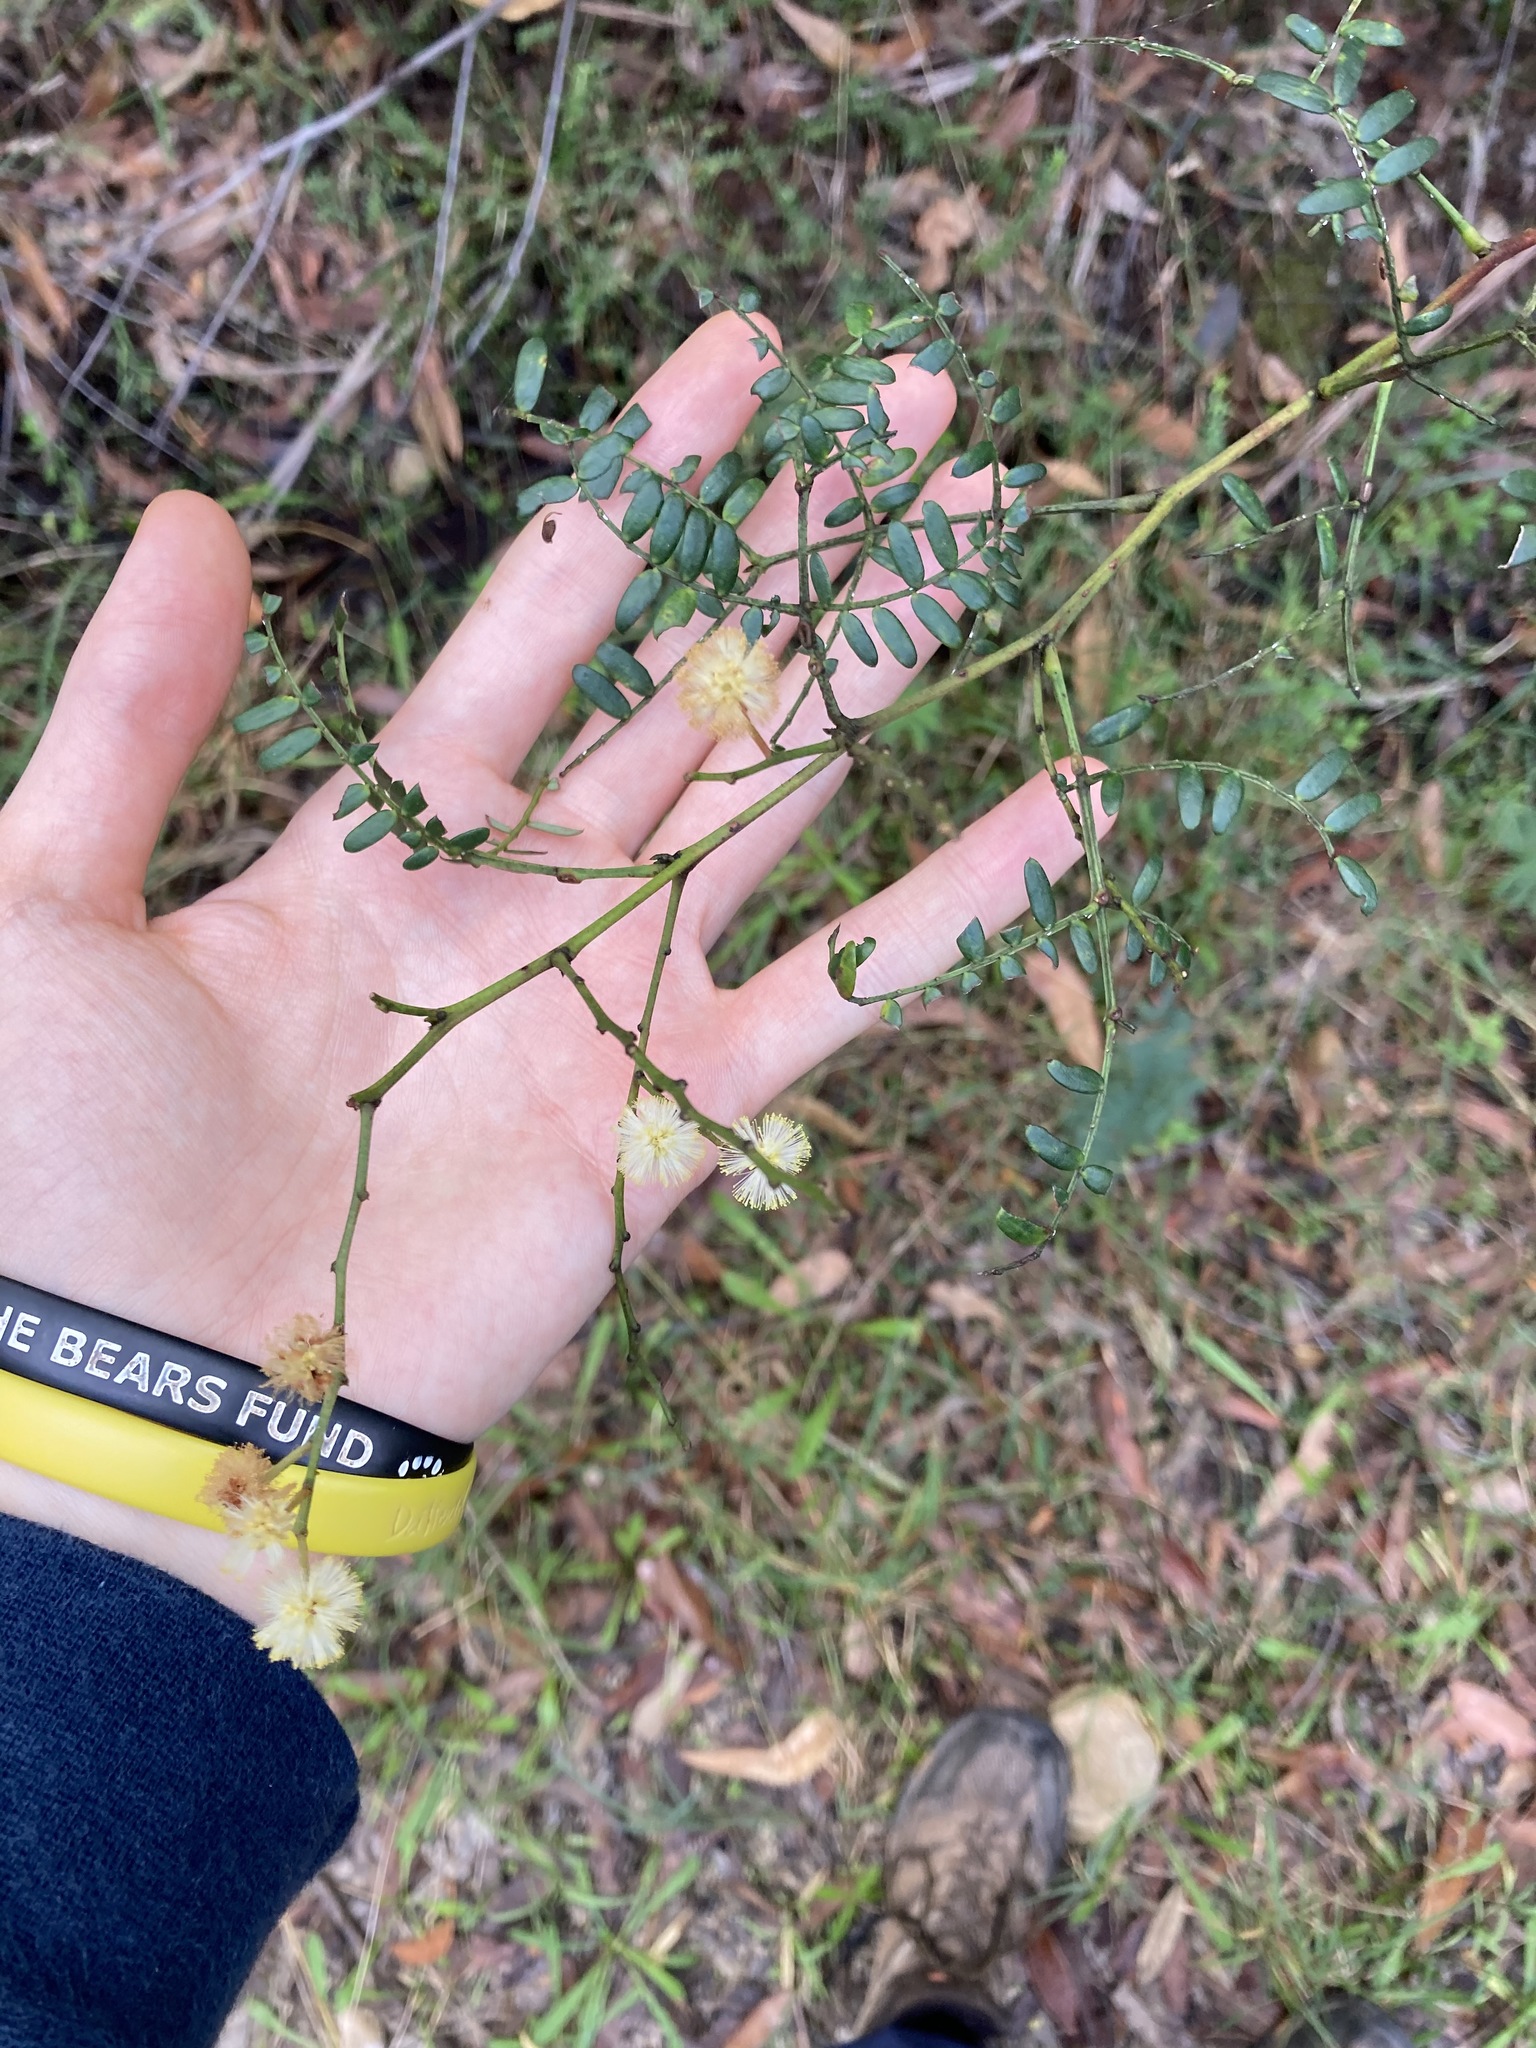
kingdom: Plantae
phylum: Tracheophyta
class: Magnoliopsida
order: Fabales
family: Fabaceae
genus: Acacia
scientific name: Acacia terminalis
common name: Cedar wattle
